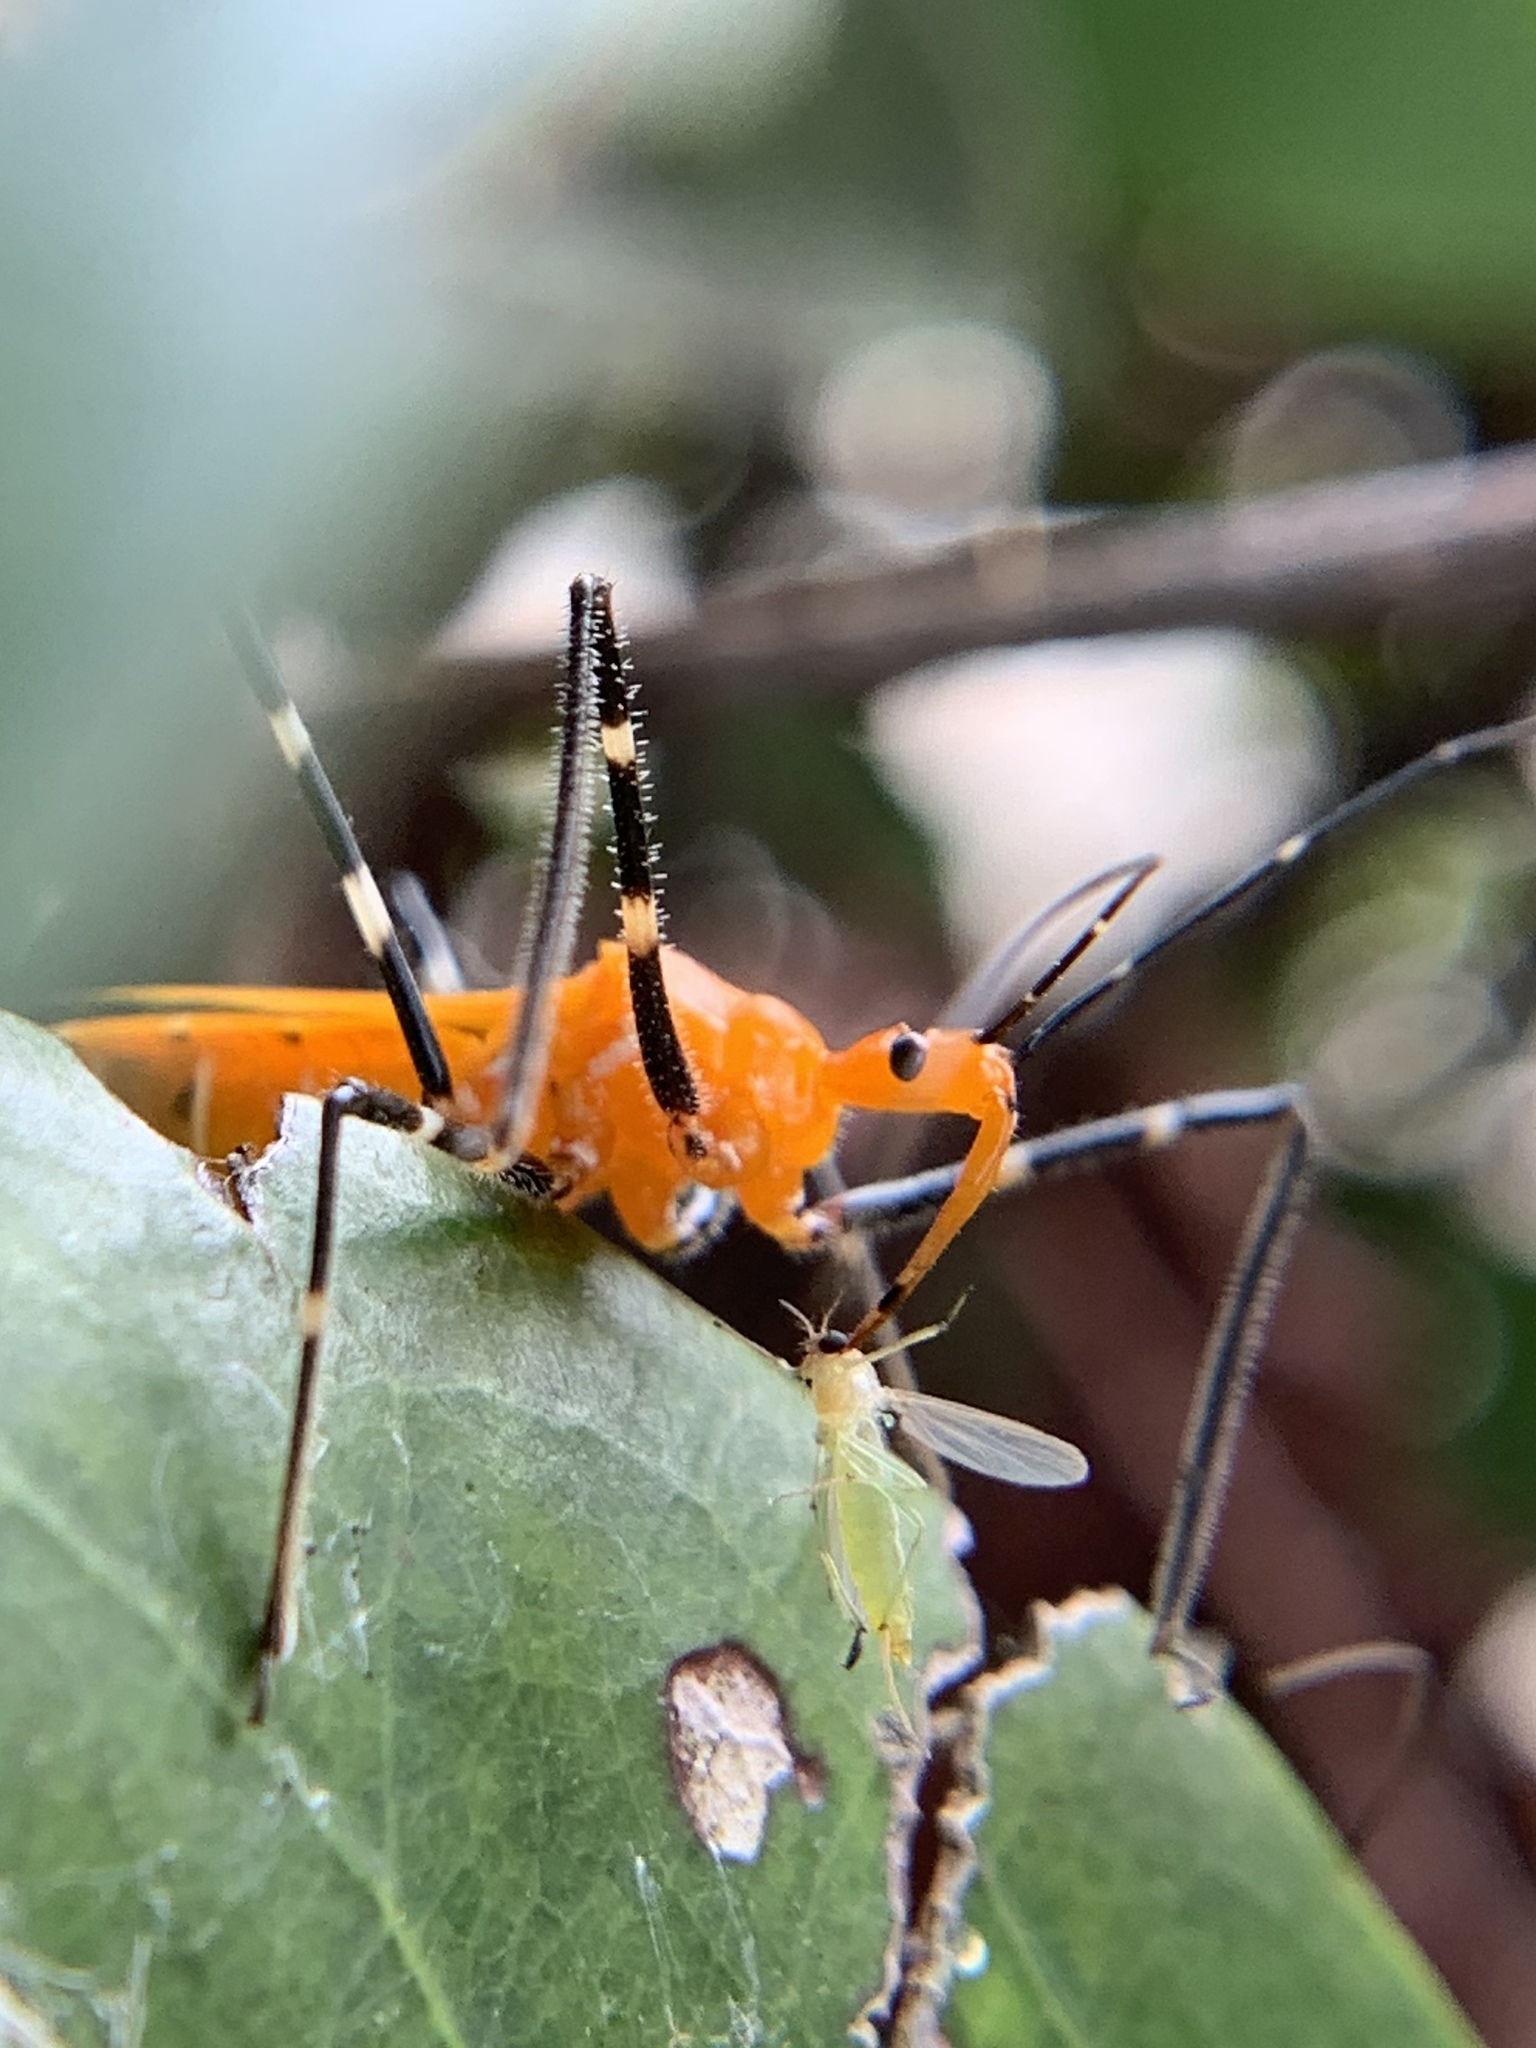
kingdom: Animalia
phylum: Arthropoda
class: Insecta
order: Hemiptera
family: Reduviidae
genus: Zelus
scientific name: Zelus longipes
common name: Milkweed assassin bug
